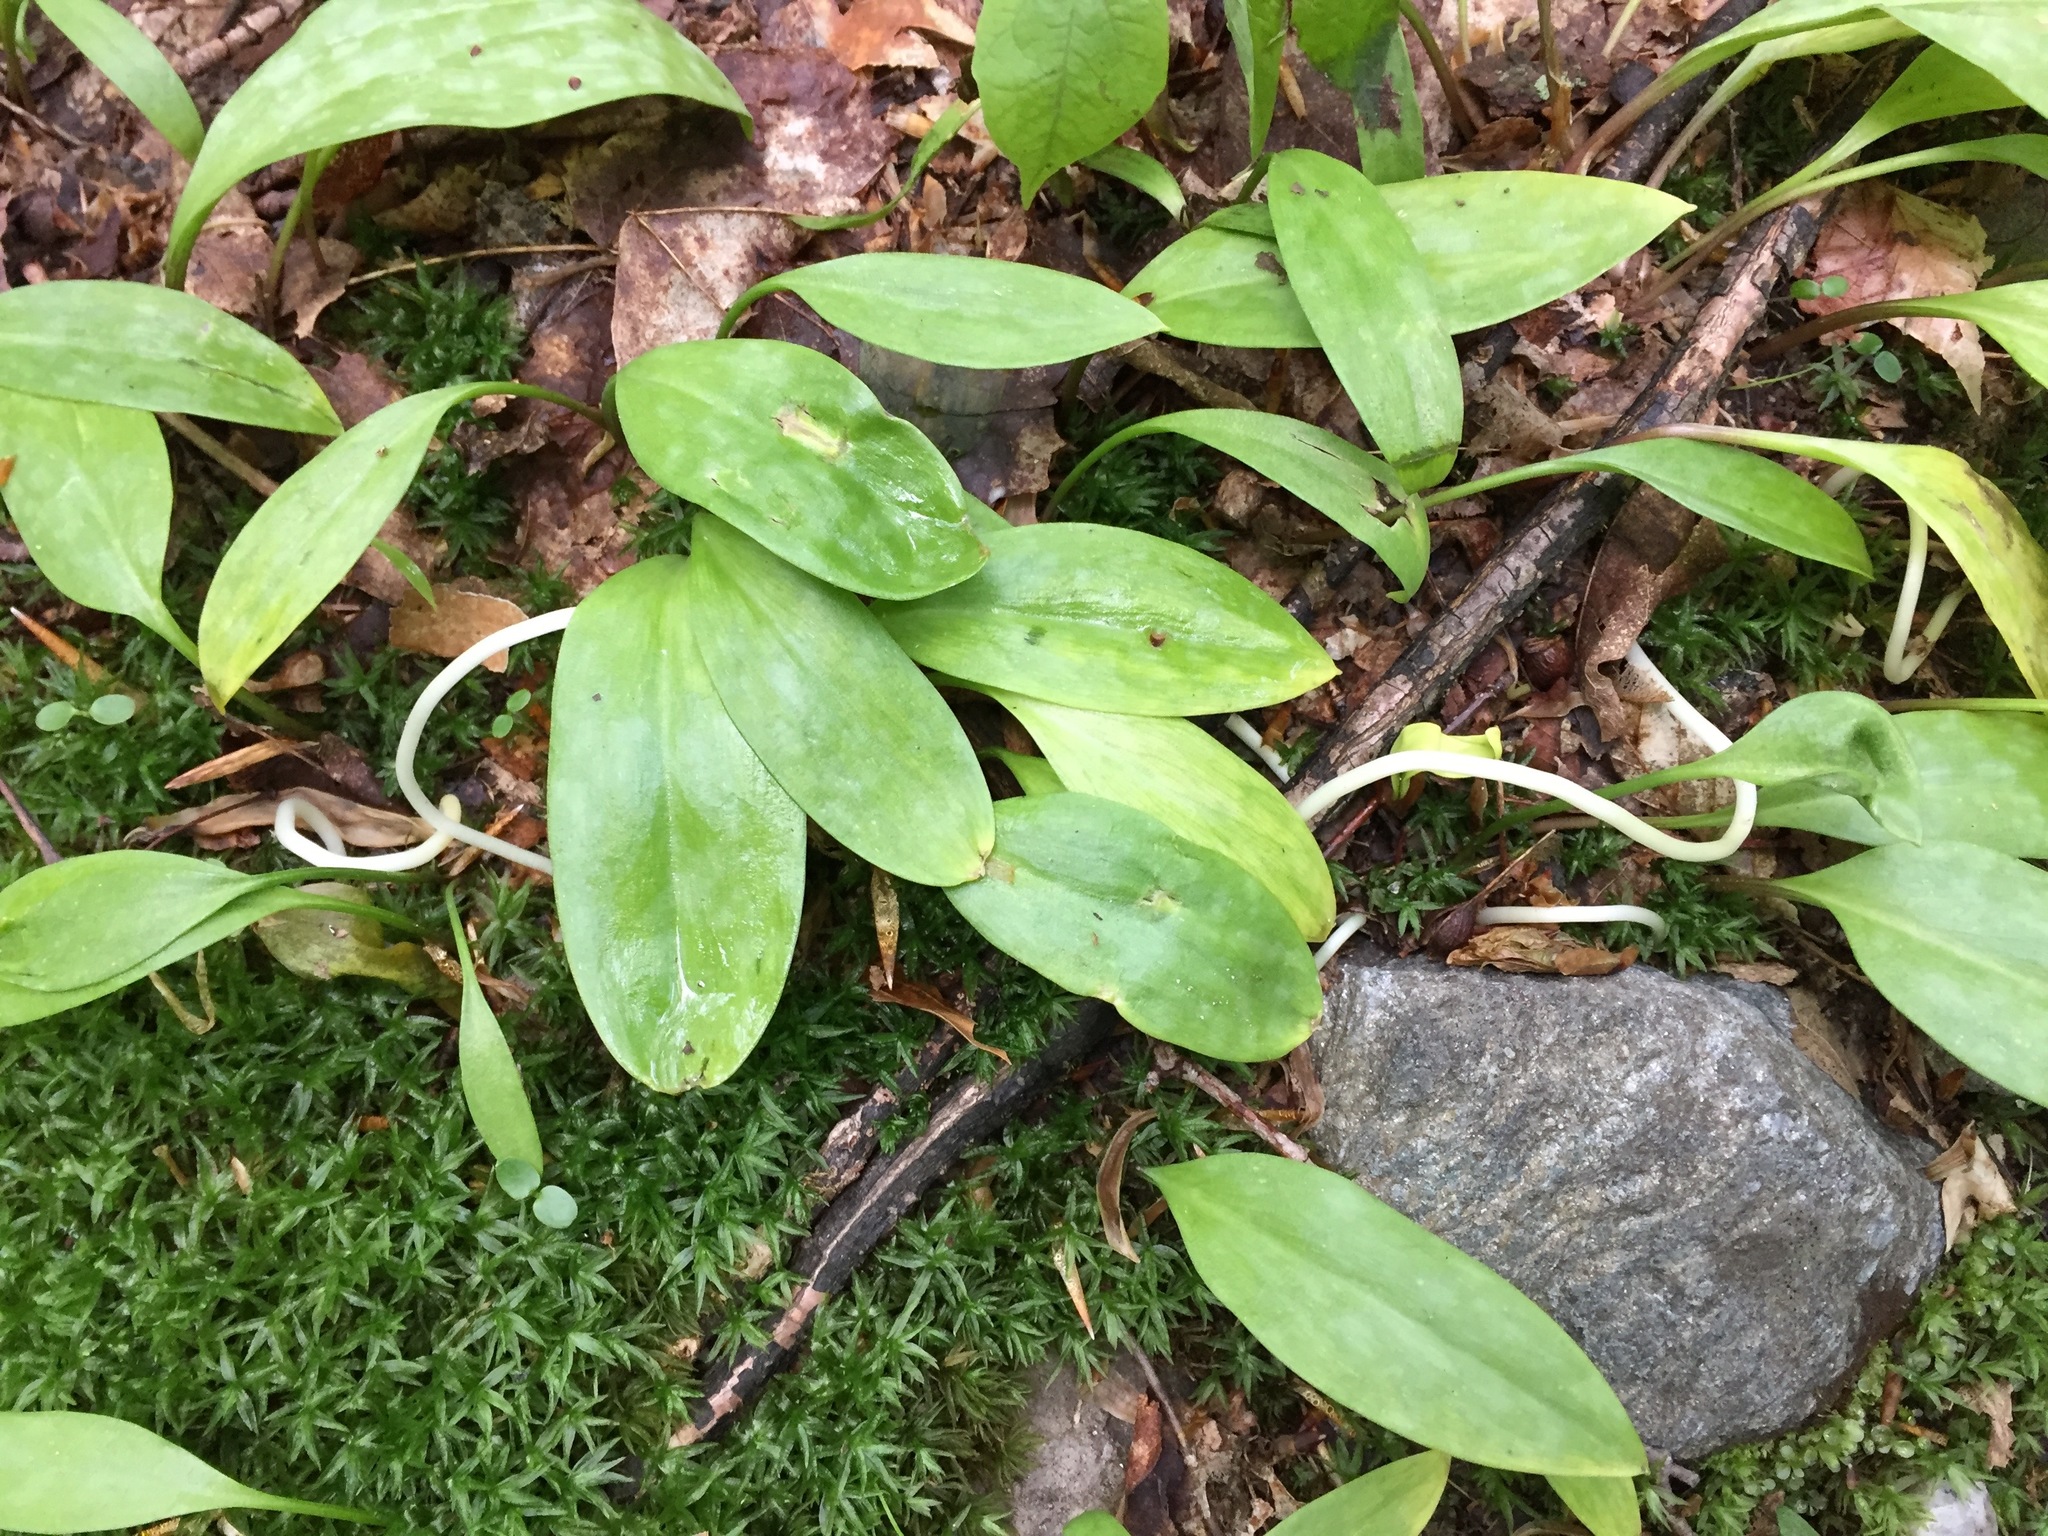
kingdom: Plantae
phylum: Tracheophyta
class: Liliopsida
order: Liliales
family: Liliaceae
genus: Erythronium
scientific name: Erythronium americanum
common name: Yellow adder's-tongue
